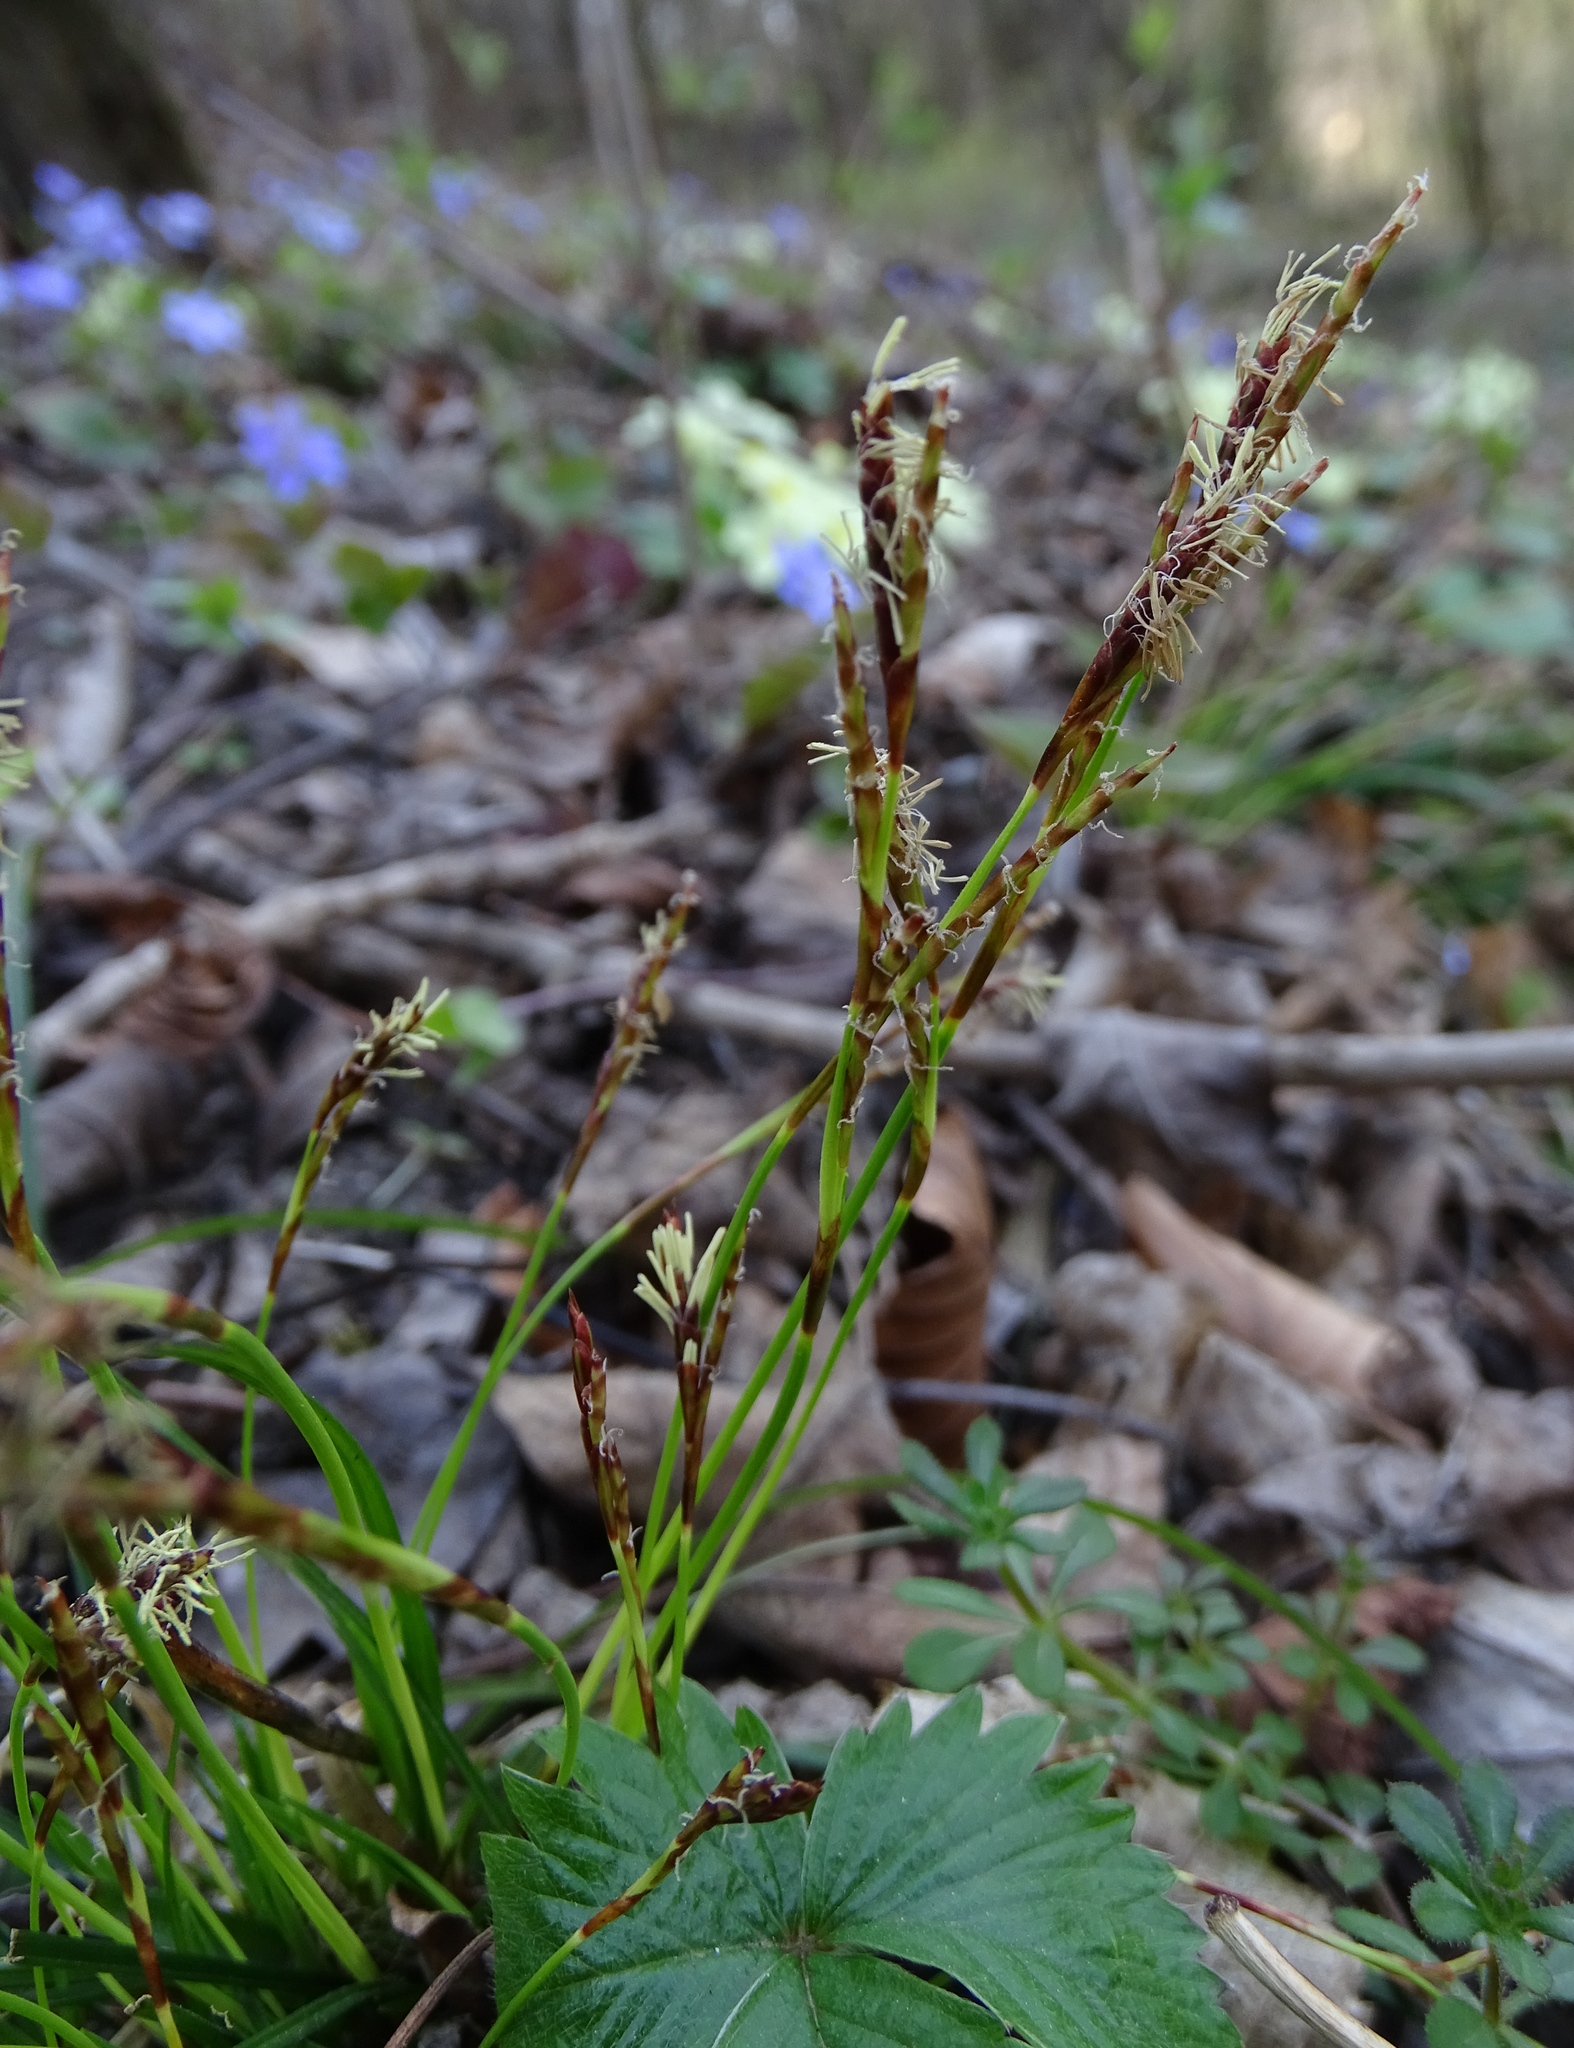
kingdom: Plantae
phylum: Tracheophyta
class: Liliopsida
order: Poales
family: Cyperaceae
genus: Carex
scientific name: Carex digitata
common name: Fingered sedge
